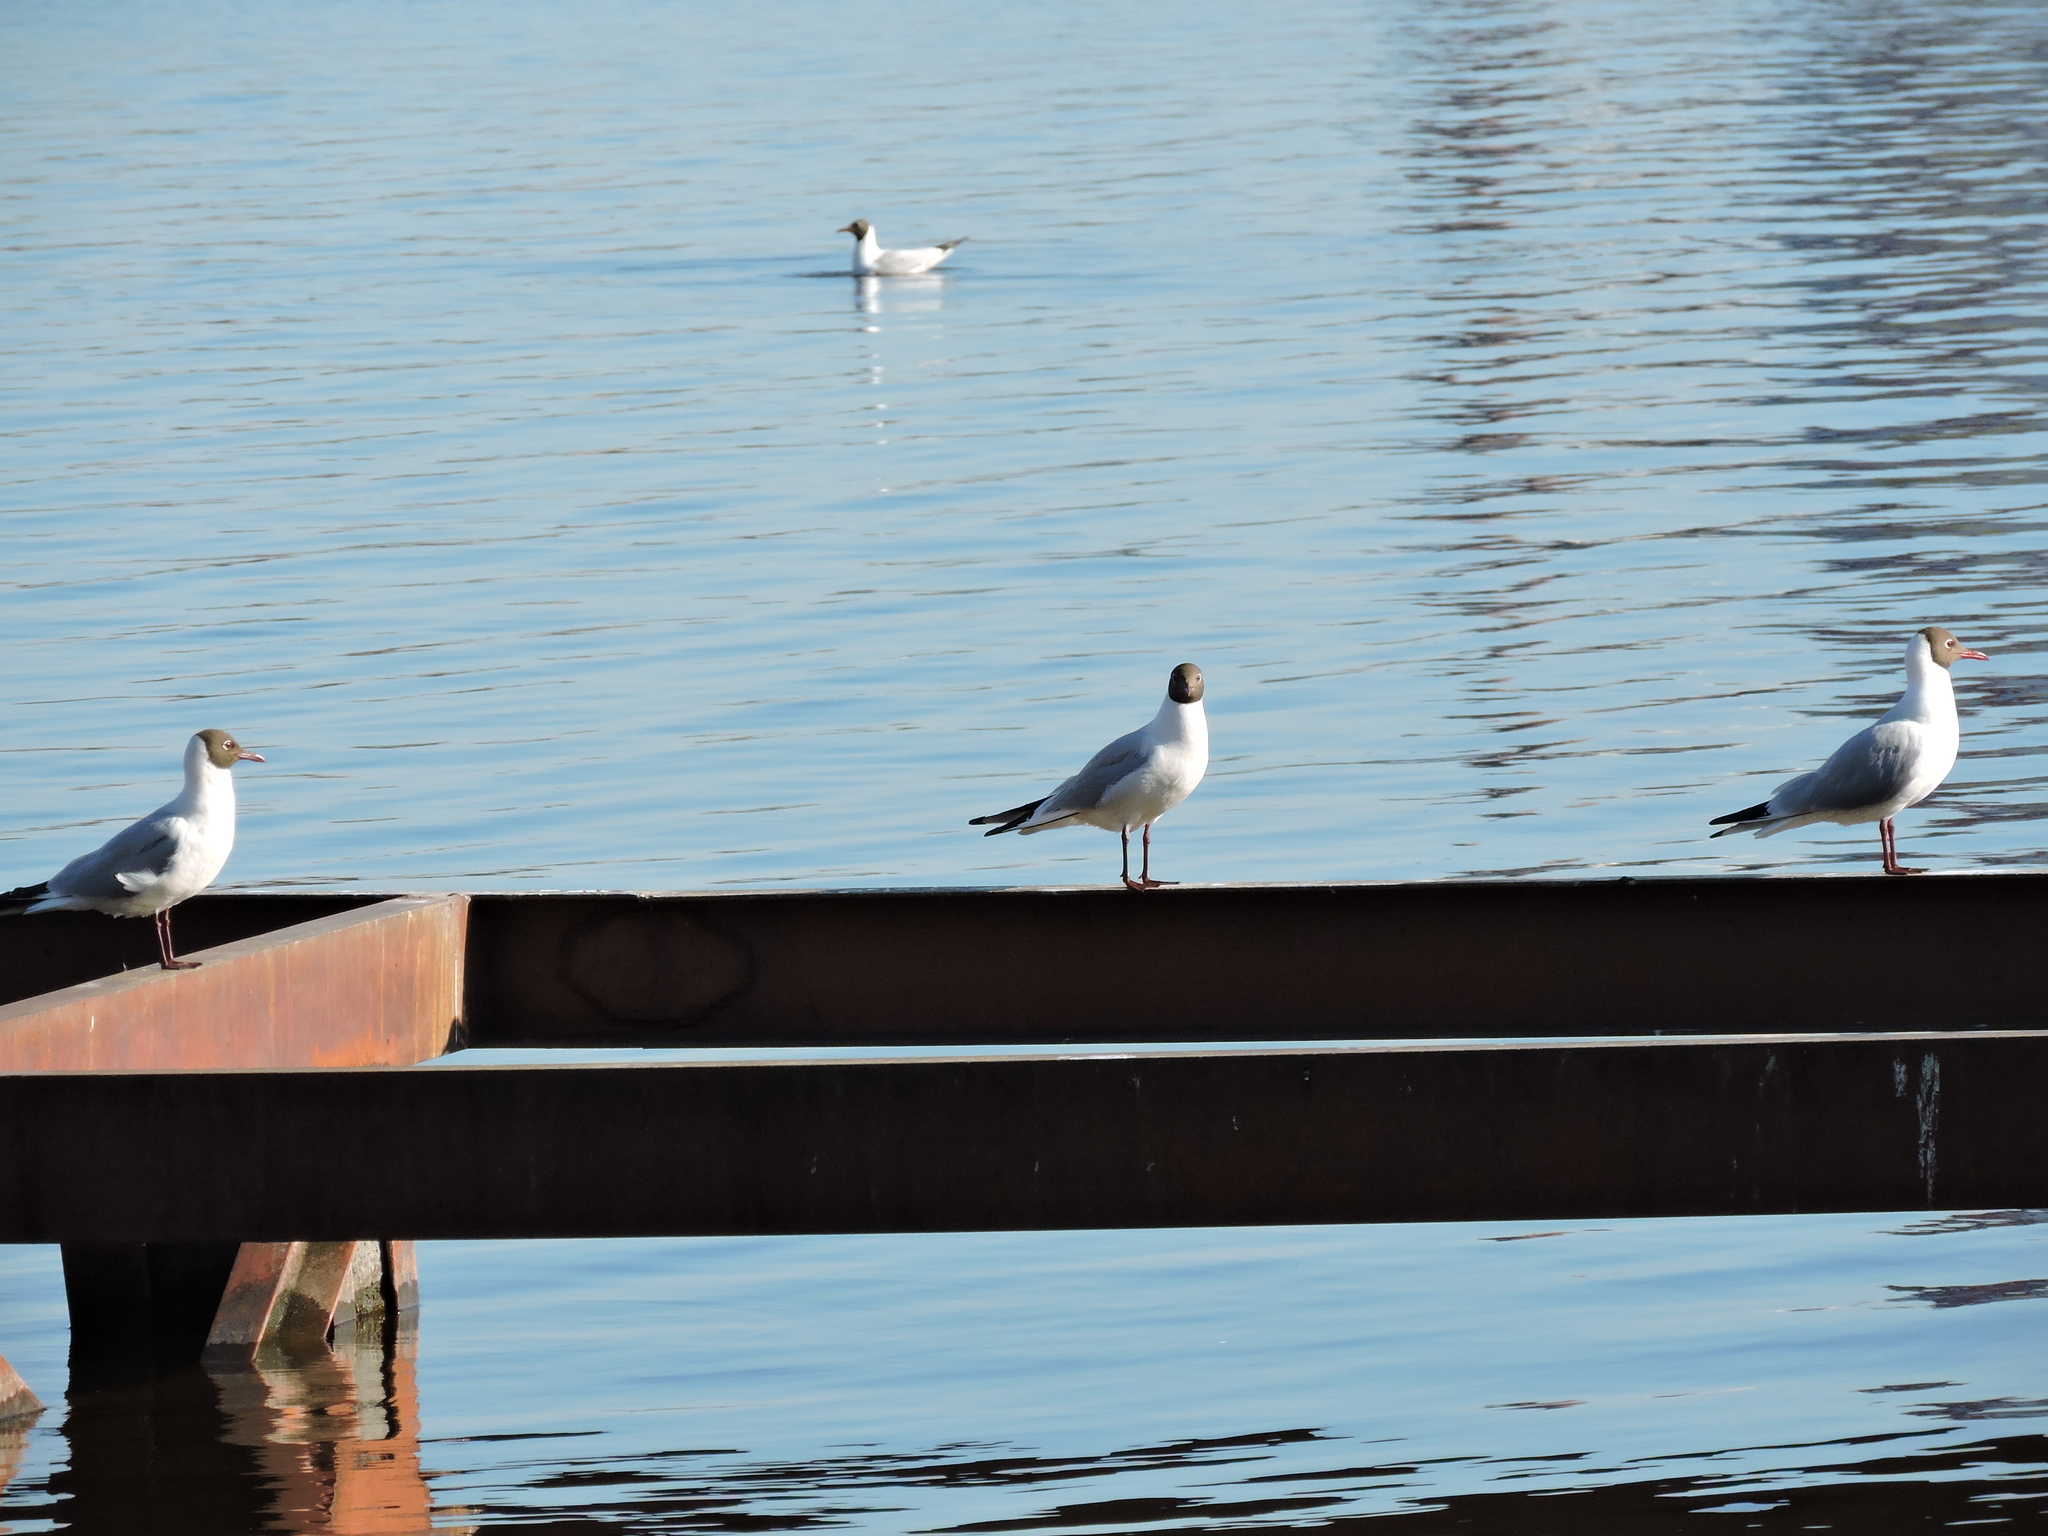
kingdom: Animalia
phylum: Chordata
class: Aves
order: Charadriiformes
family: Laridae
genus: Chroicocephalus
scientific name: Chroicocephalus ridibundus
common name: Black-headed gull
